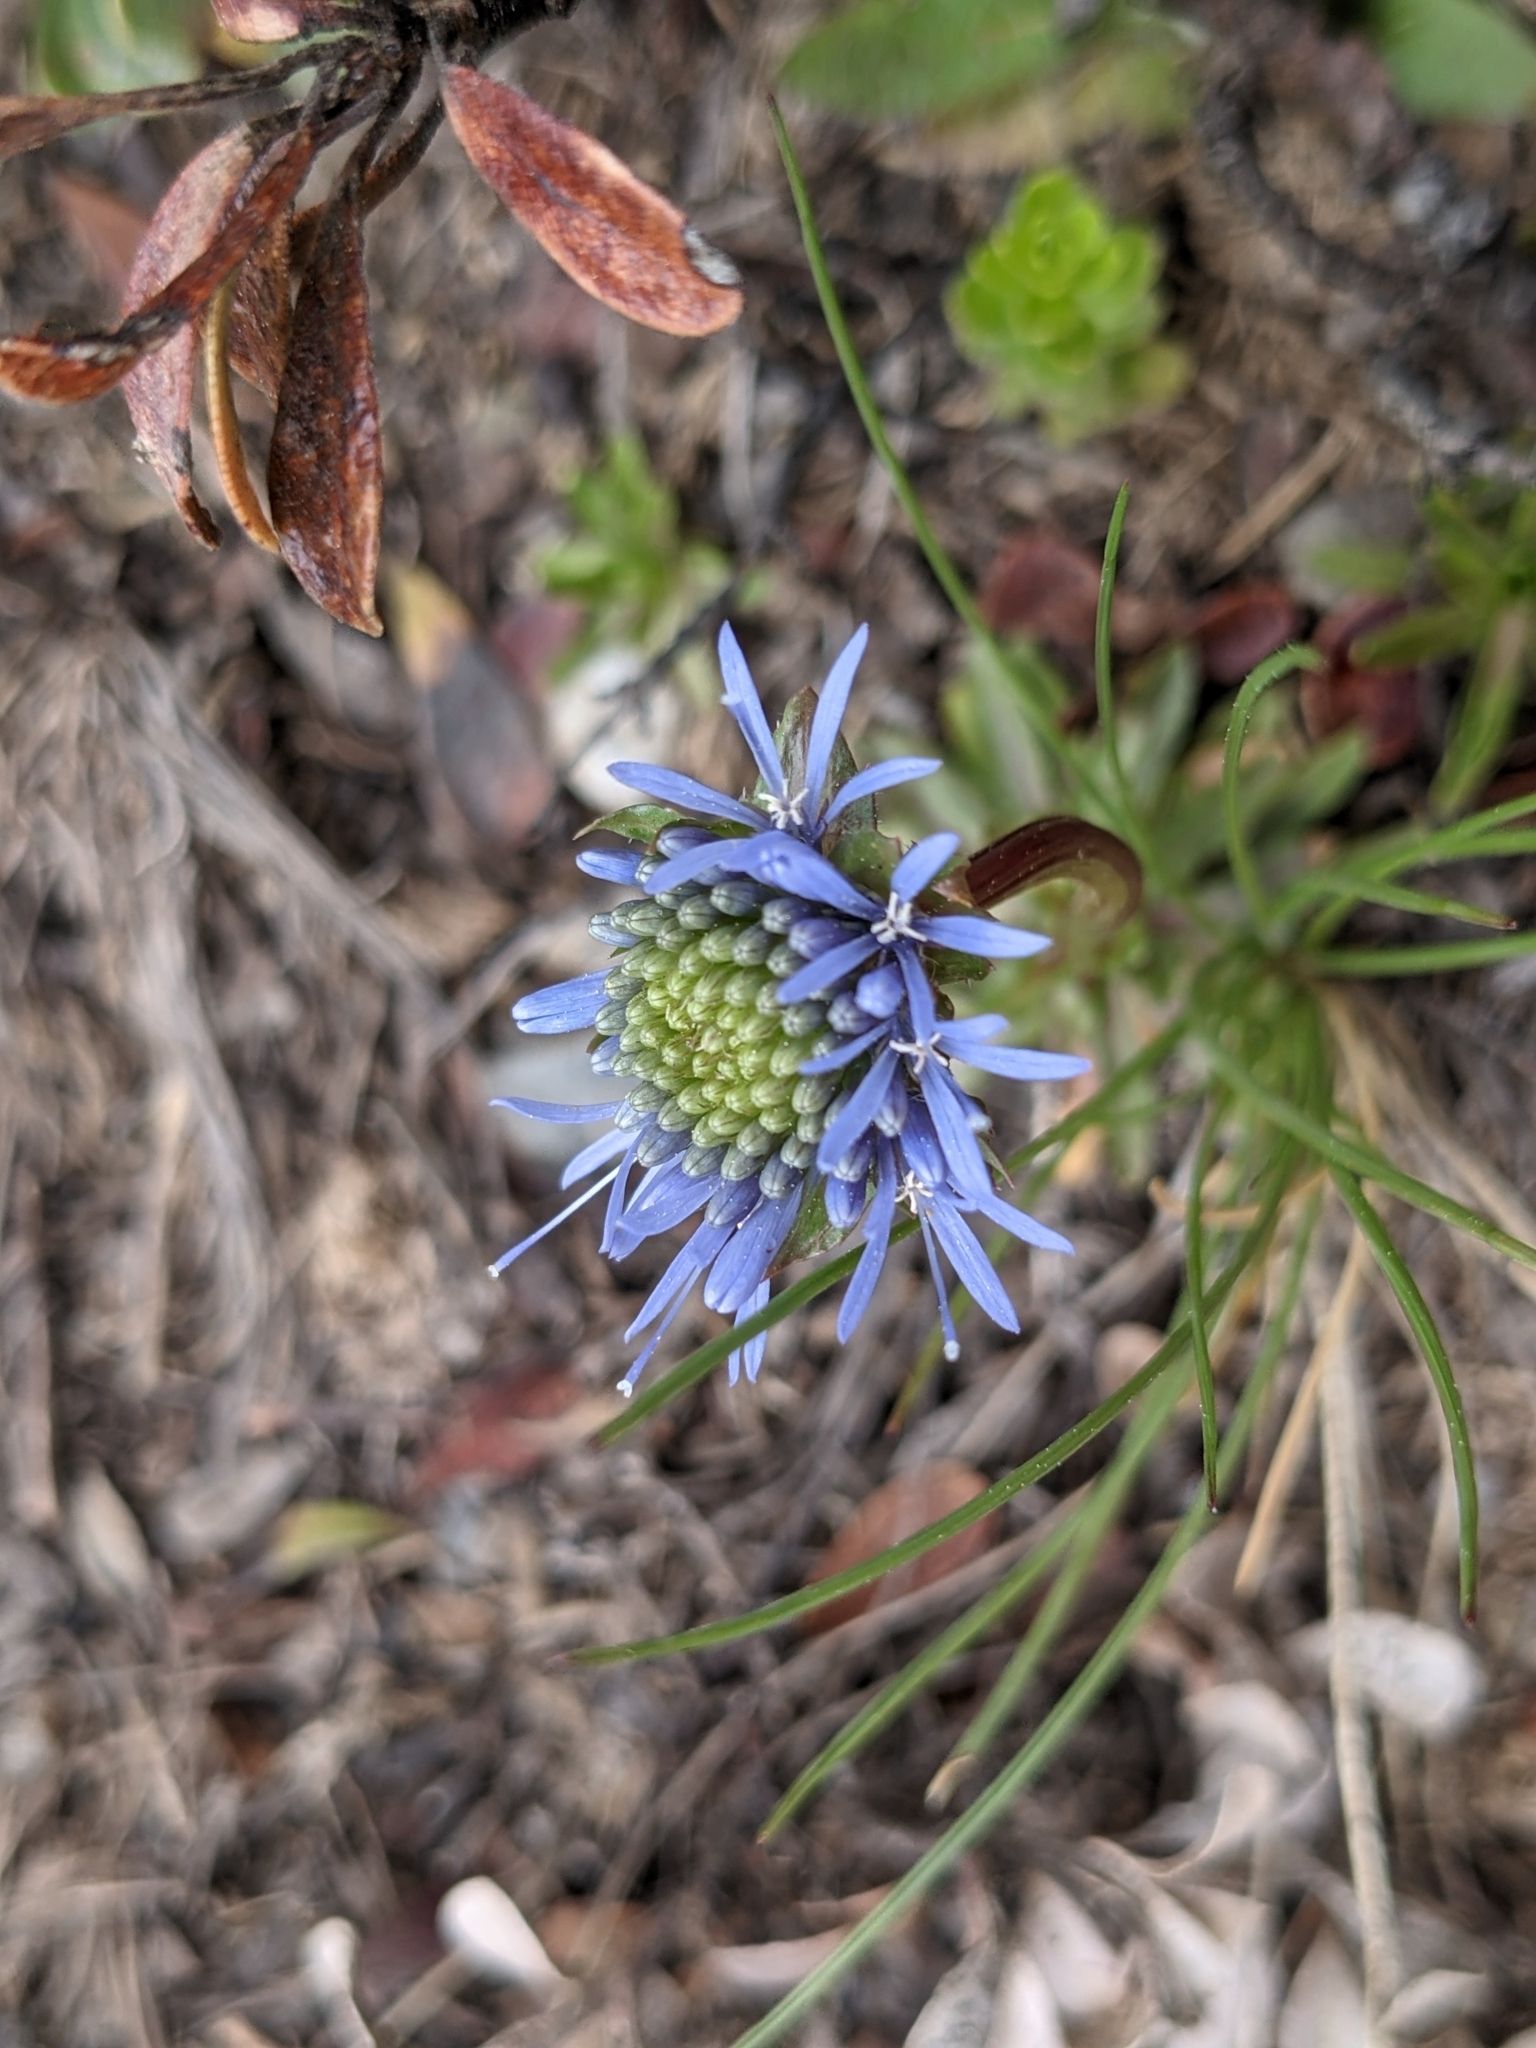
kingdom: Plantae
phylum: Tracheophyta
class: Magnoliopsida
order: Asterales
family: Campanulaceae
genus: Jasione
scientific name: Jasione laevis
